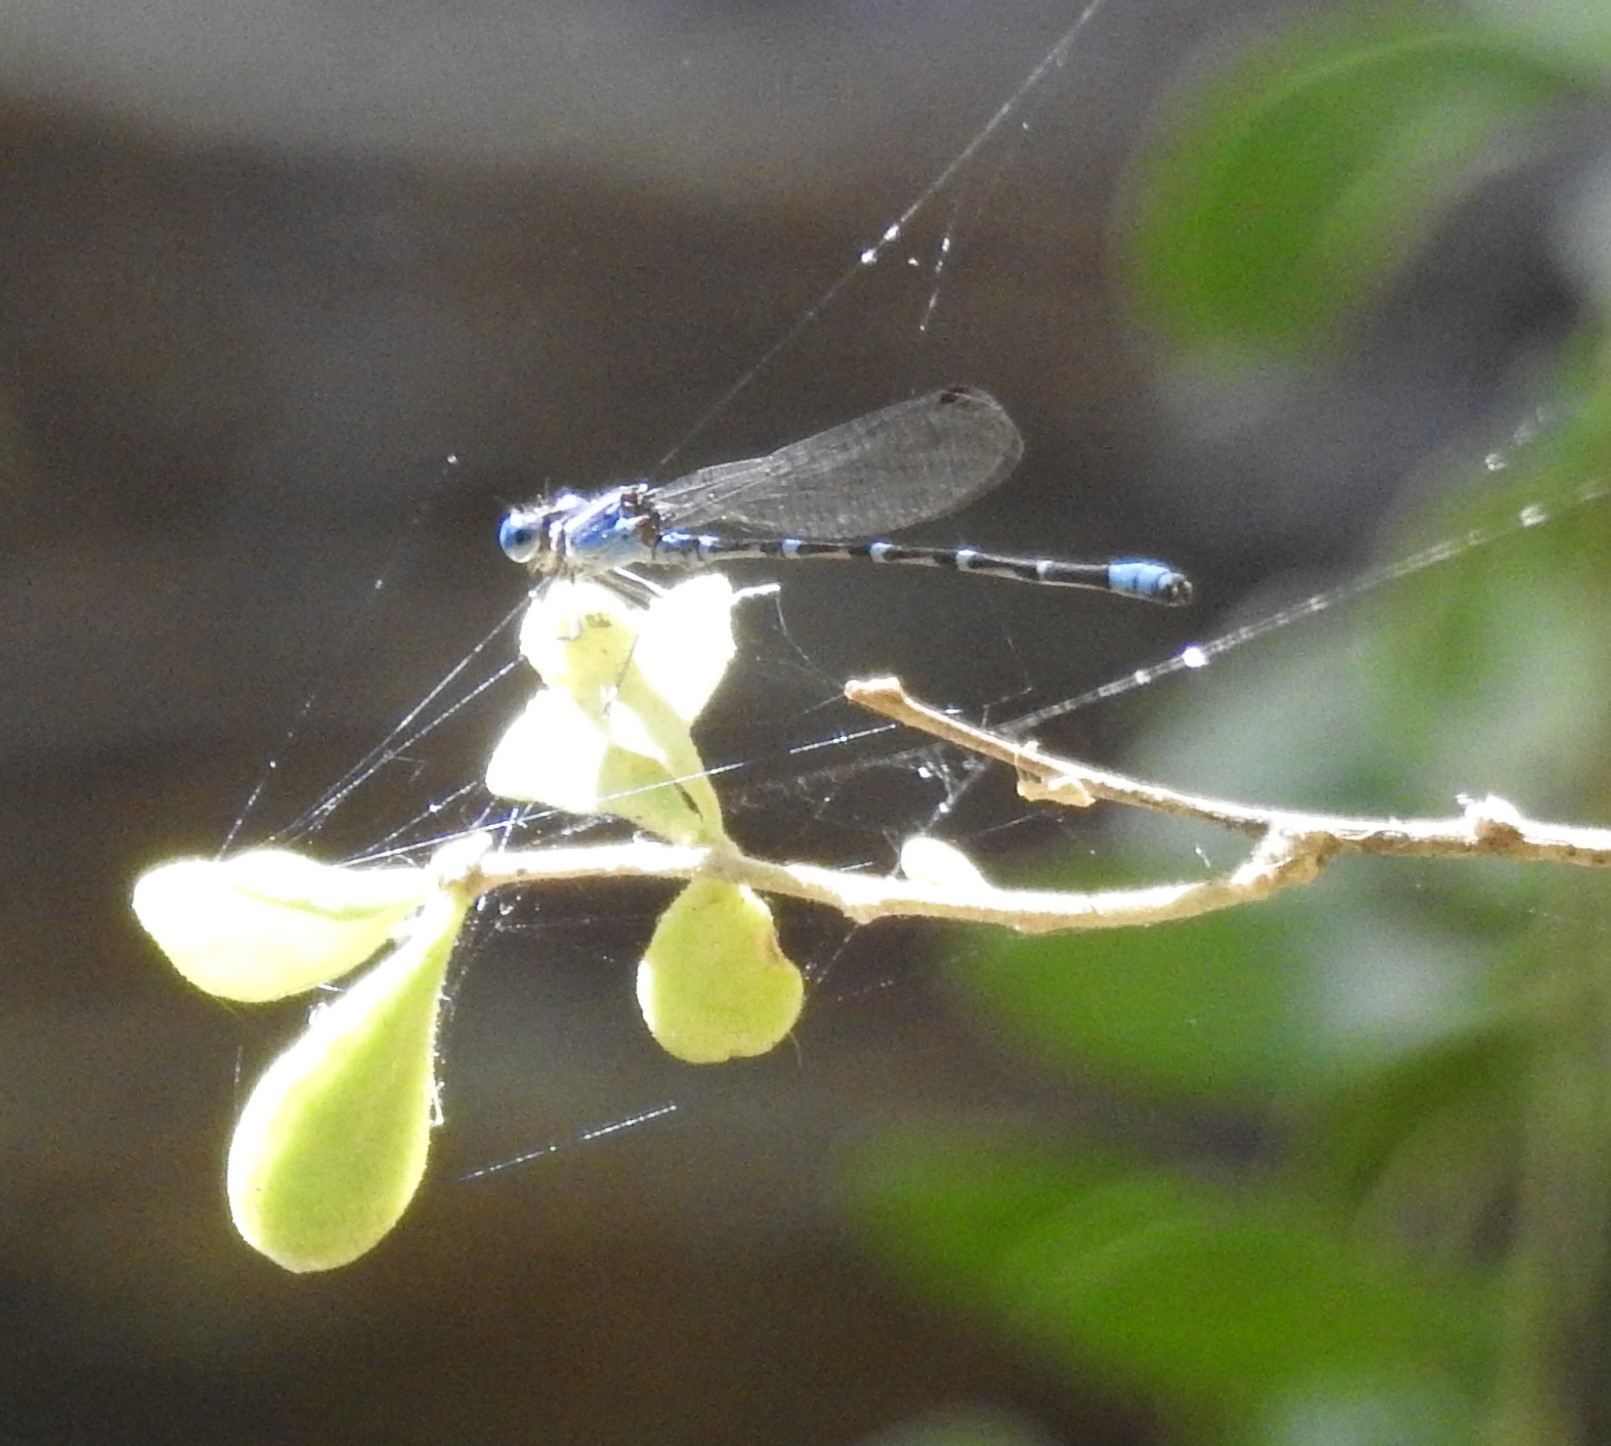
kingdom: Animalia
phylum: Arthropoda
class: Insecta
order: Odonata
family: Coenagrionidae
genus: Argia
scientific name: Argia sedula
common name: Blue-ringed dancer
